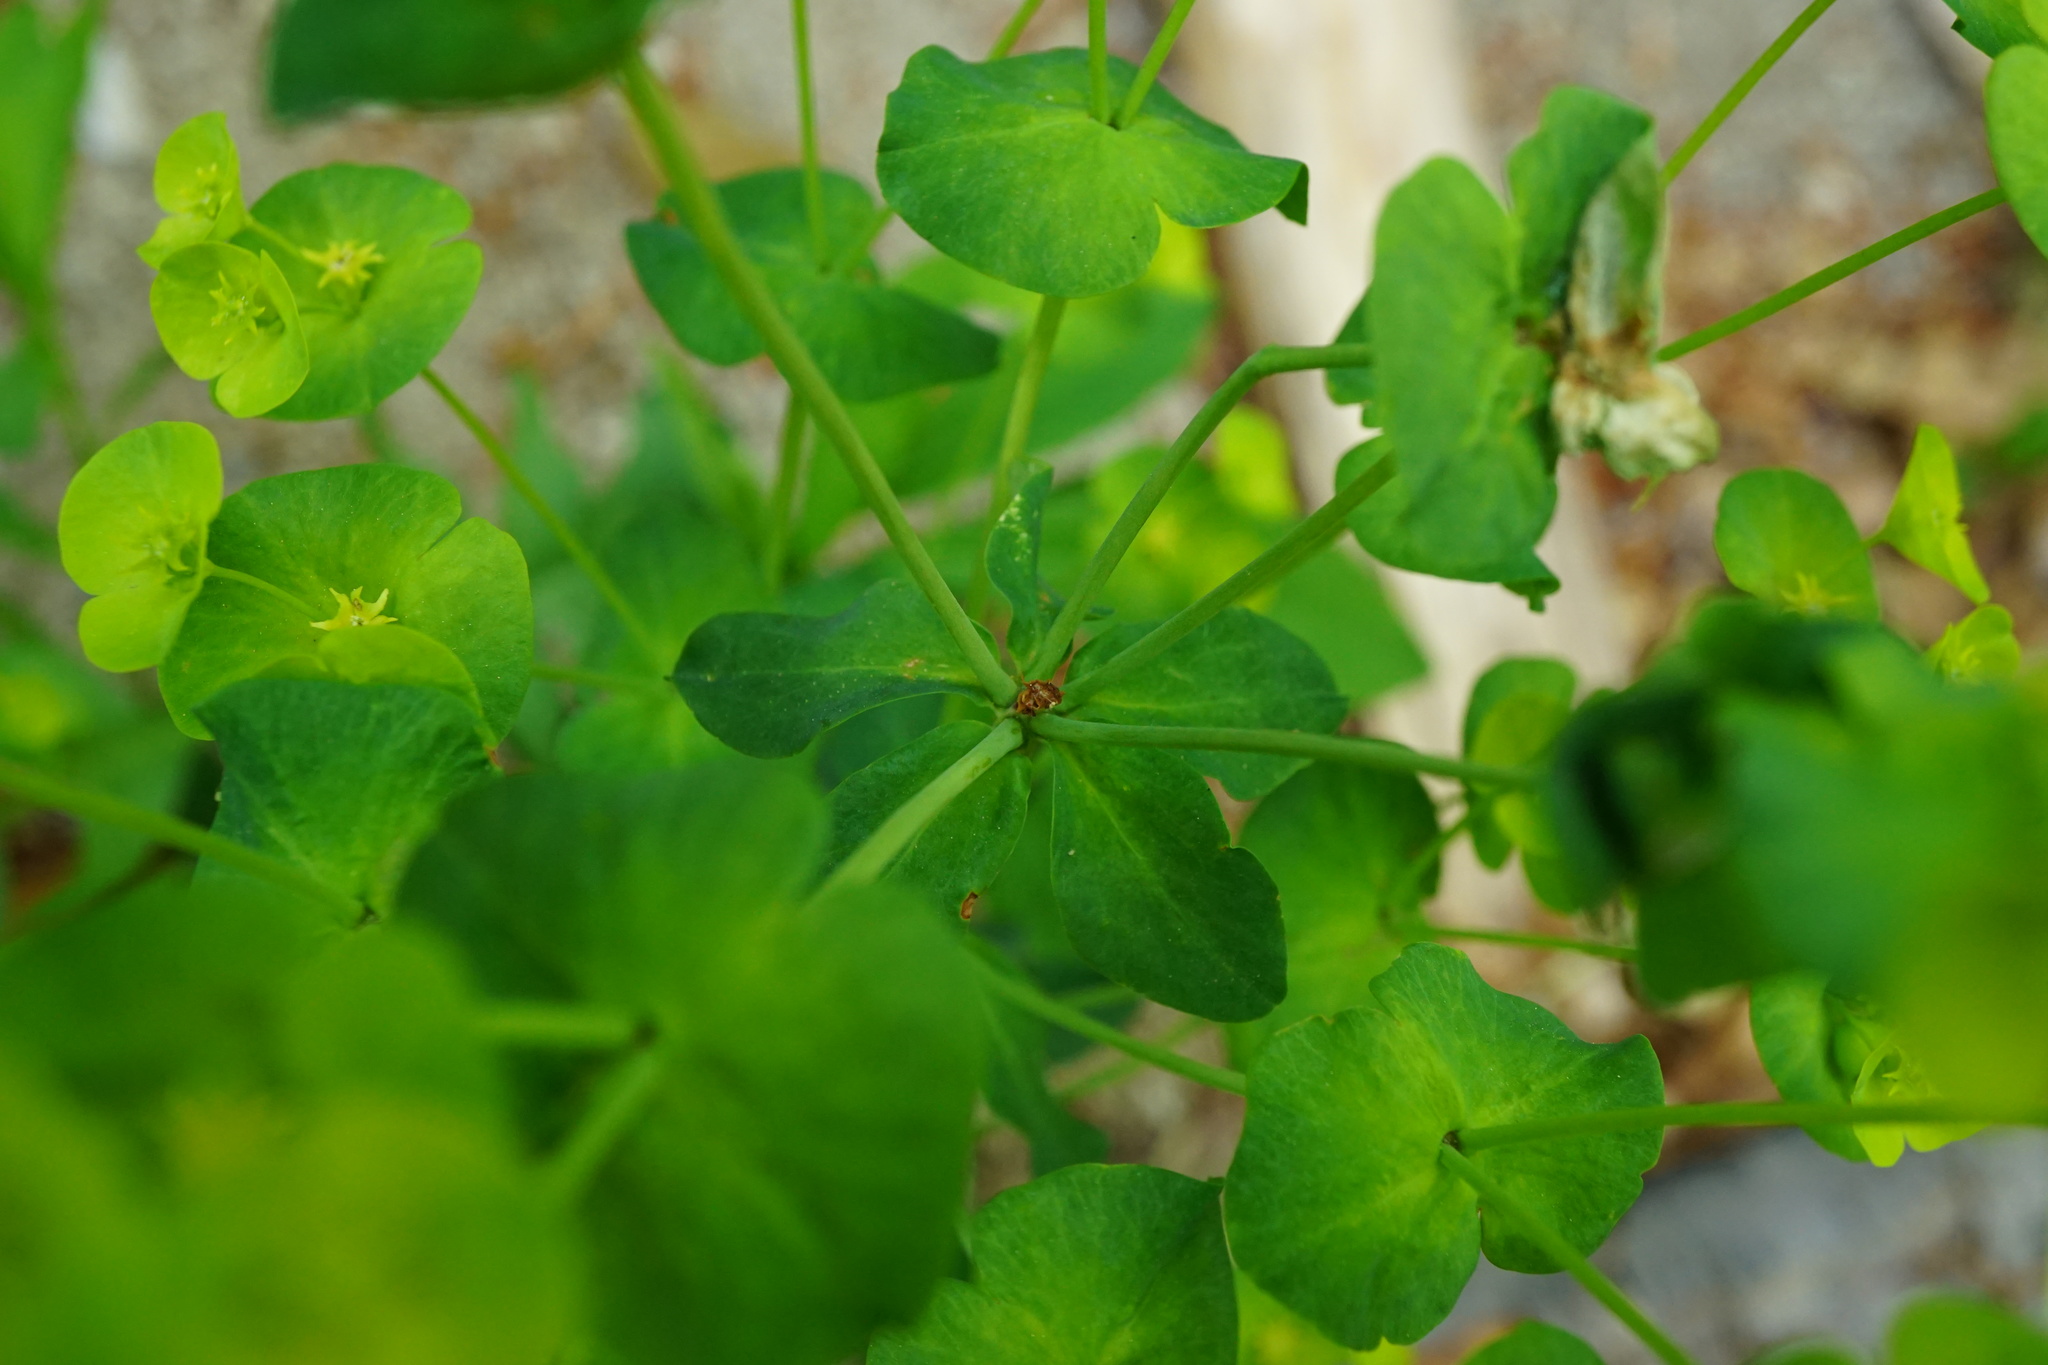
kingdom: Plantae
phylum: Tracheophyta
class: Magnoliopsida
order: Malpighiales
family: Euphorbiaceae
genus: Euphorbia
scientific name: Euphorbia amygdaloides
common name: Wood spurge
